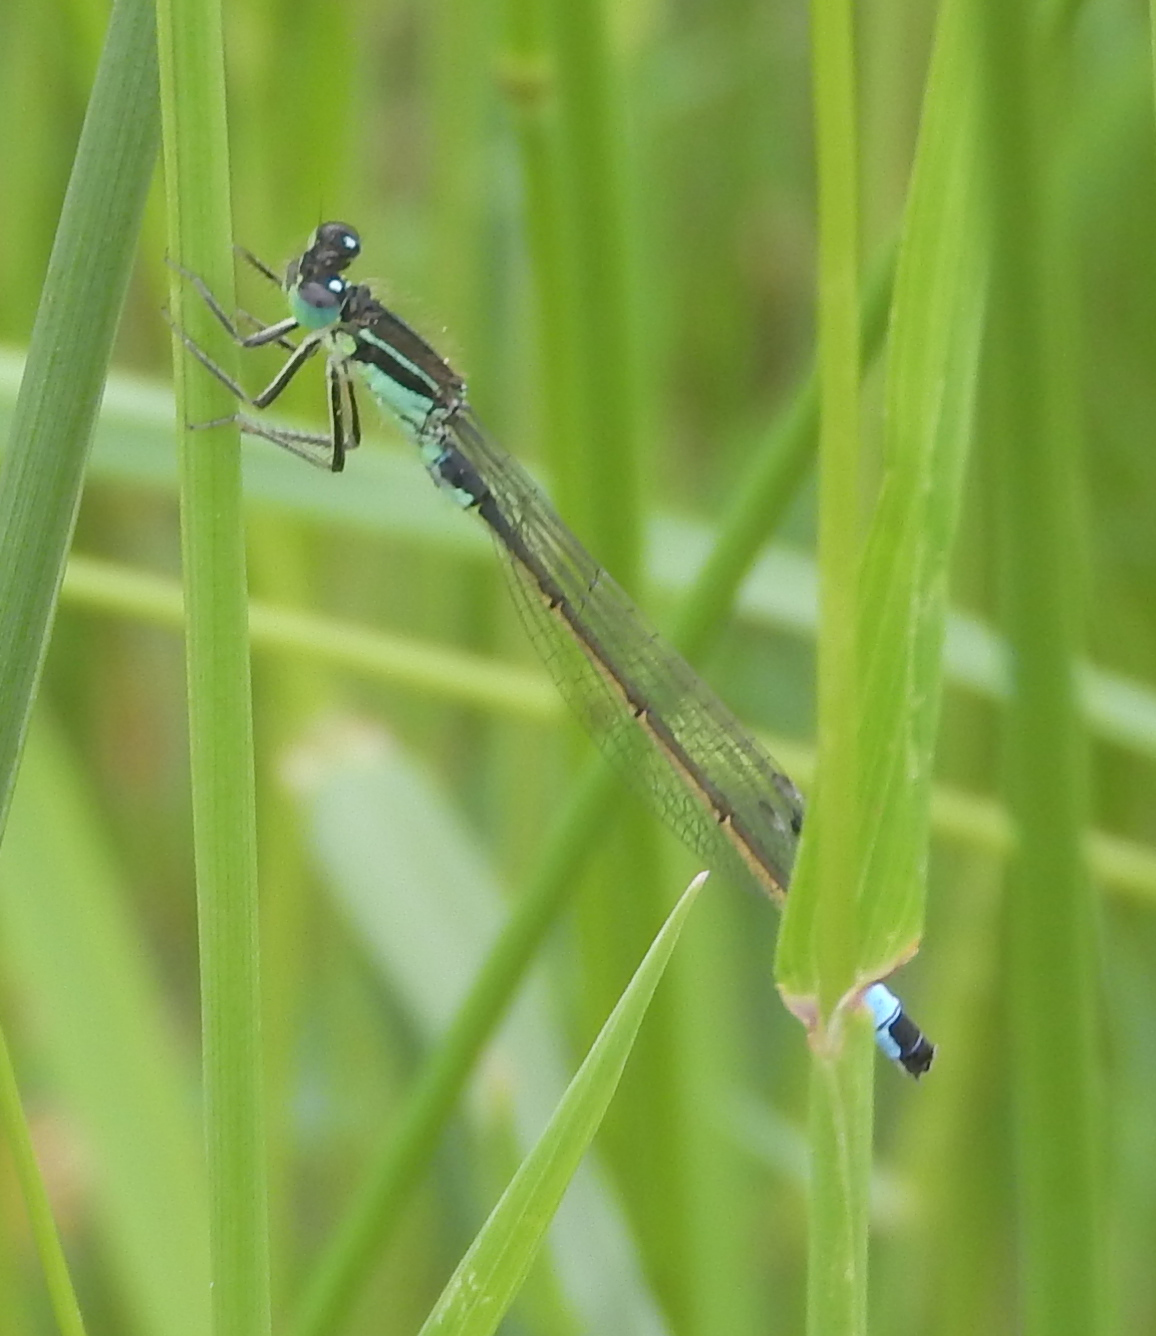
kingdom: Animalia
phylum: Arthropoda
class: Insecta
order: Odonata
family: Coenagrionidae
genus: Ischnura
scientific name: Ischnura elegans
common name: Blue-tailed damselfly
